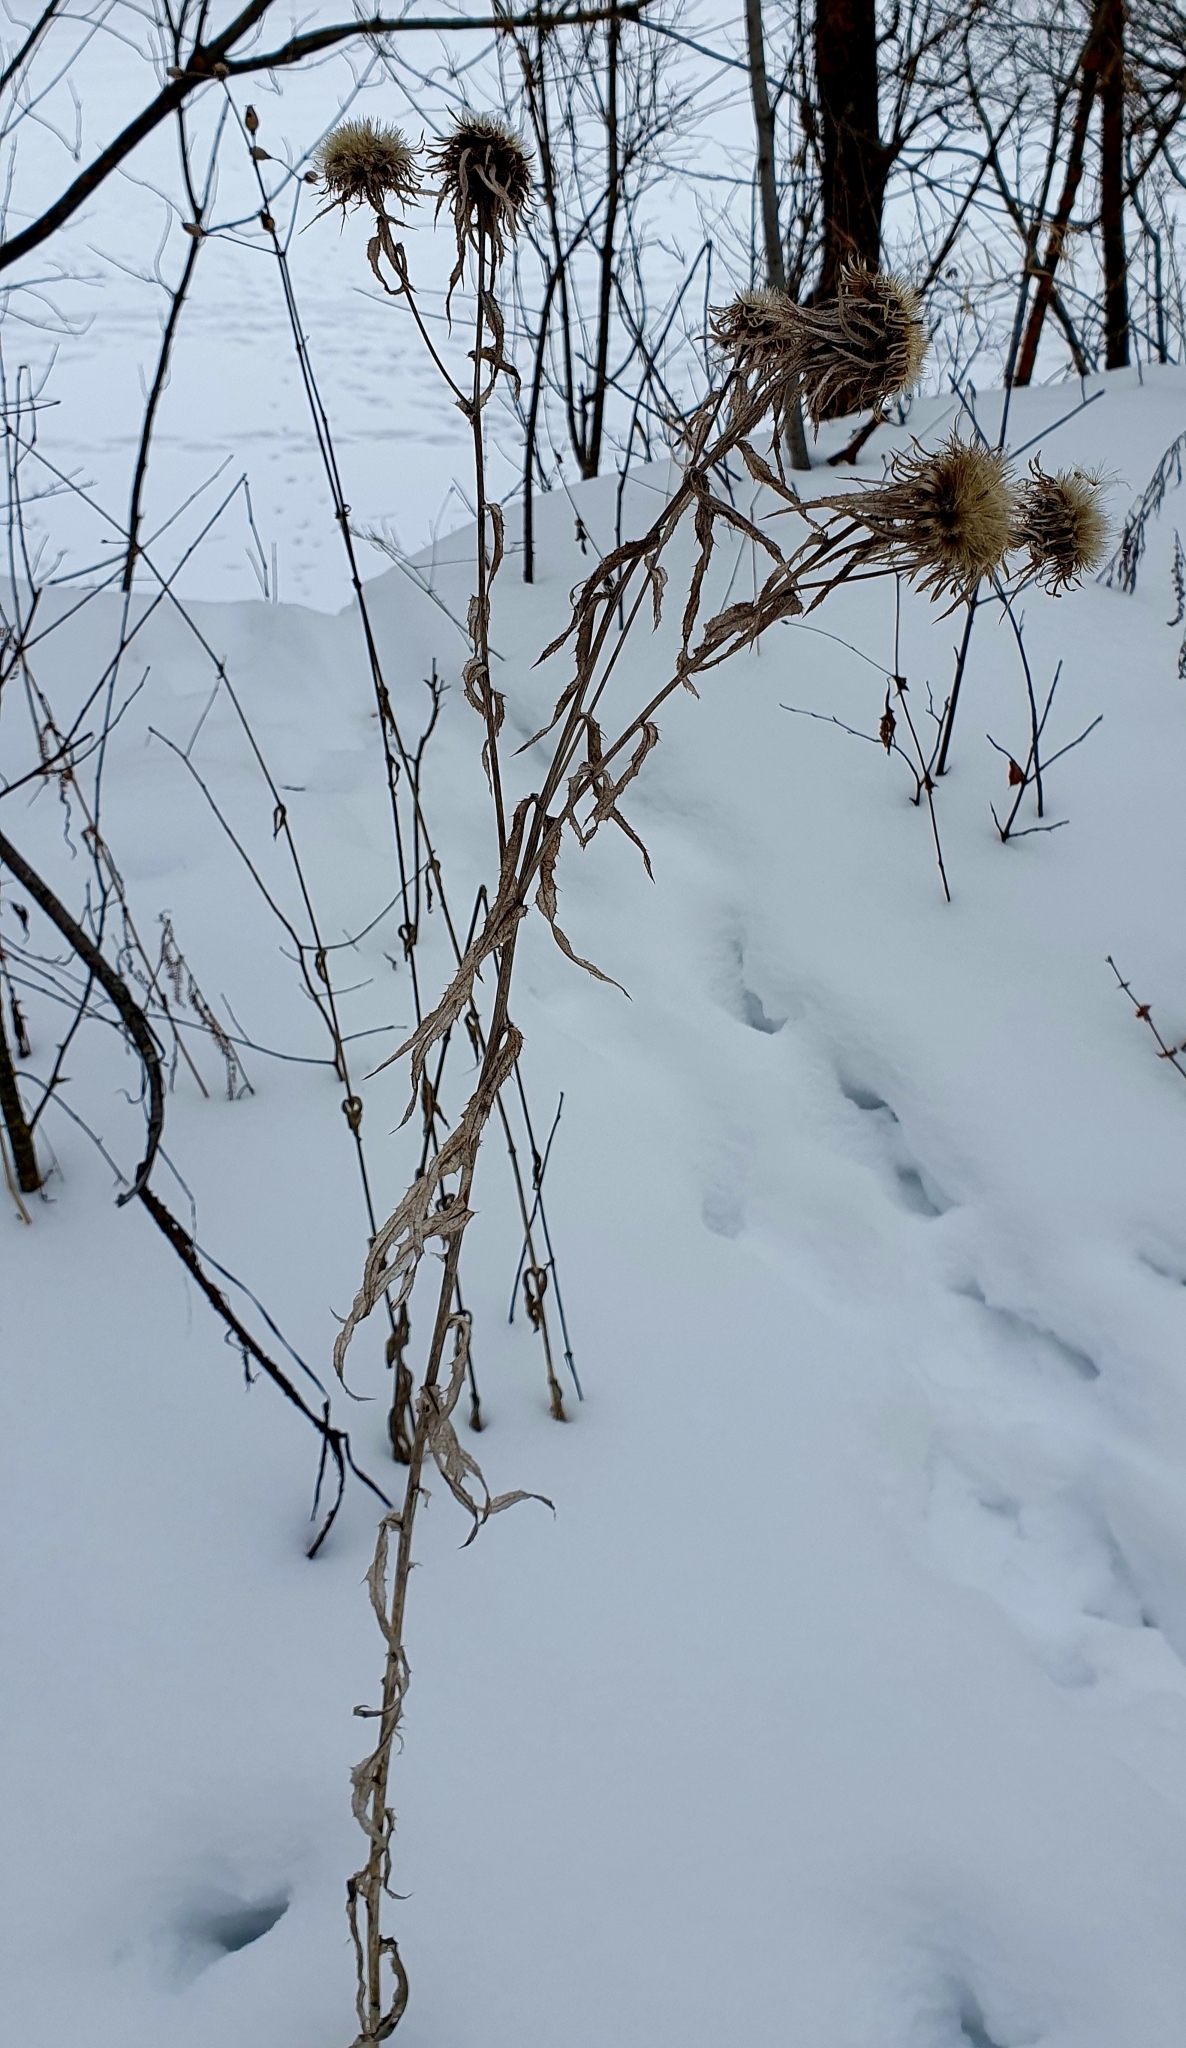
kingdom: Plantae
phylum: Tracheophyta
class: Magnoliopsida
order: Asterales
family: Asteraceae
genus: Carlina
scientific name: Carlina biebersteinii
